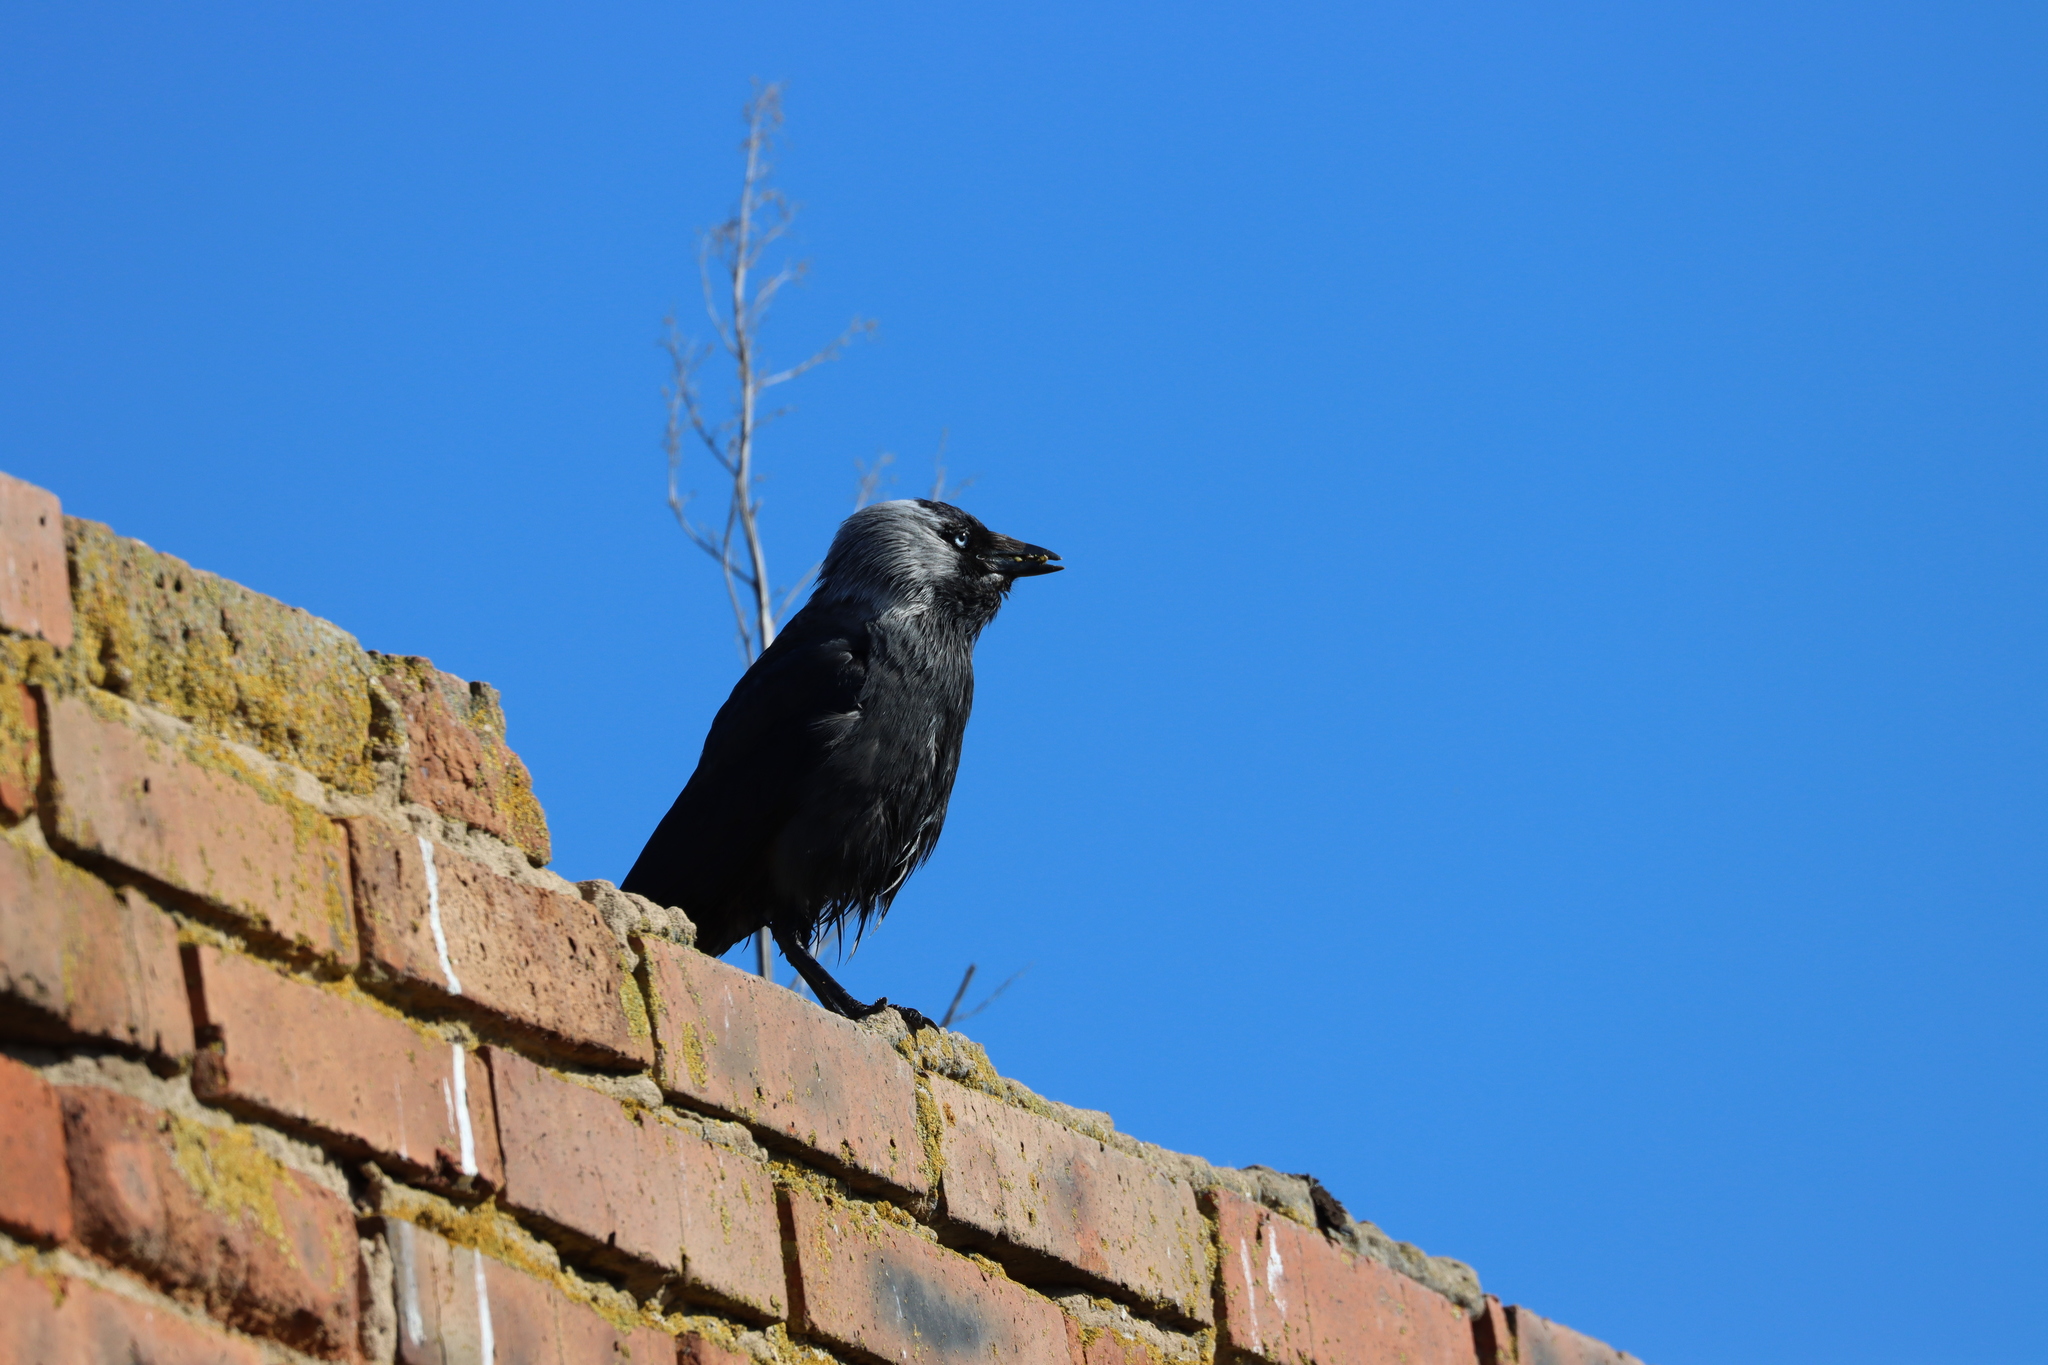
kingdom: Animalia
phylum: Chordata
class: Aves
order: Passeriformes
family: Corvidae
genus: Coloeus
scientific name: Coloeus monedula
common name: Western jackdaw
